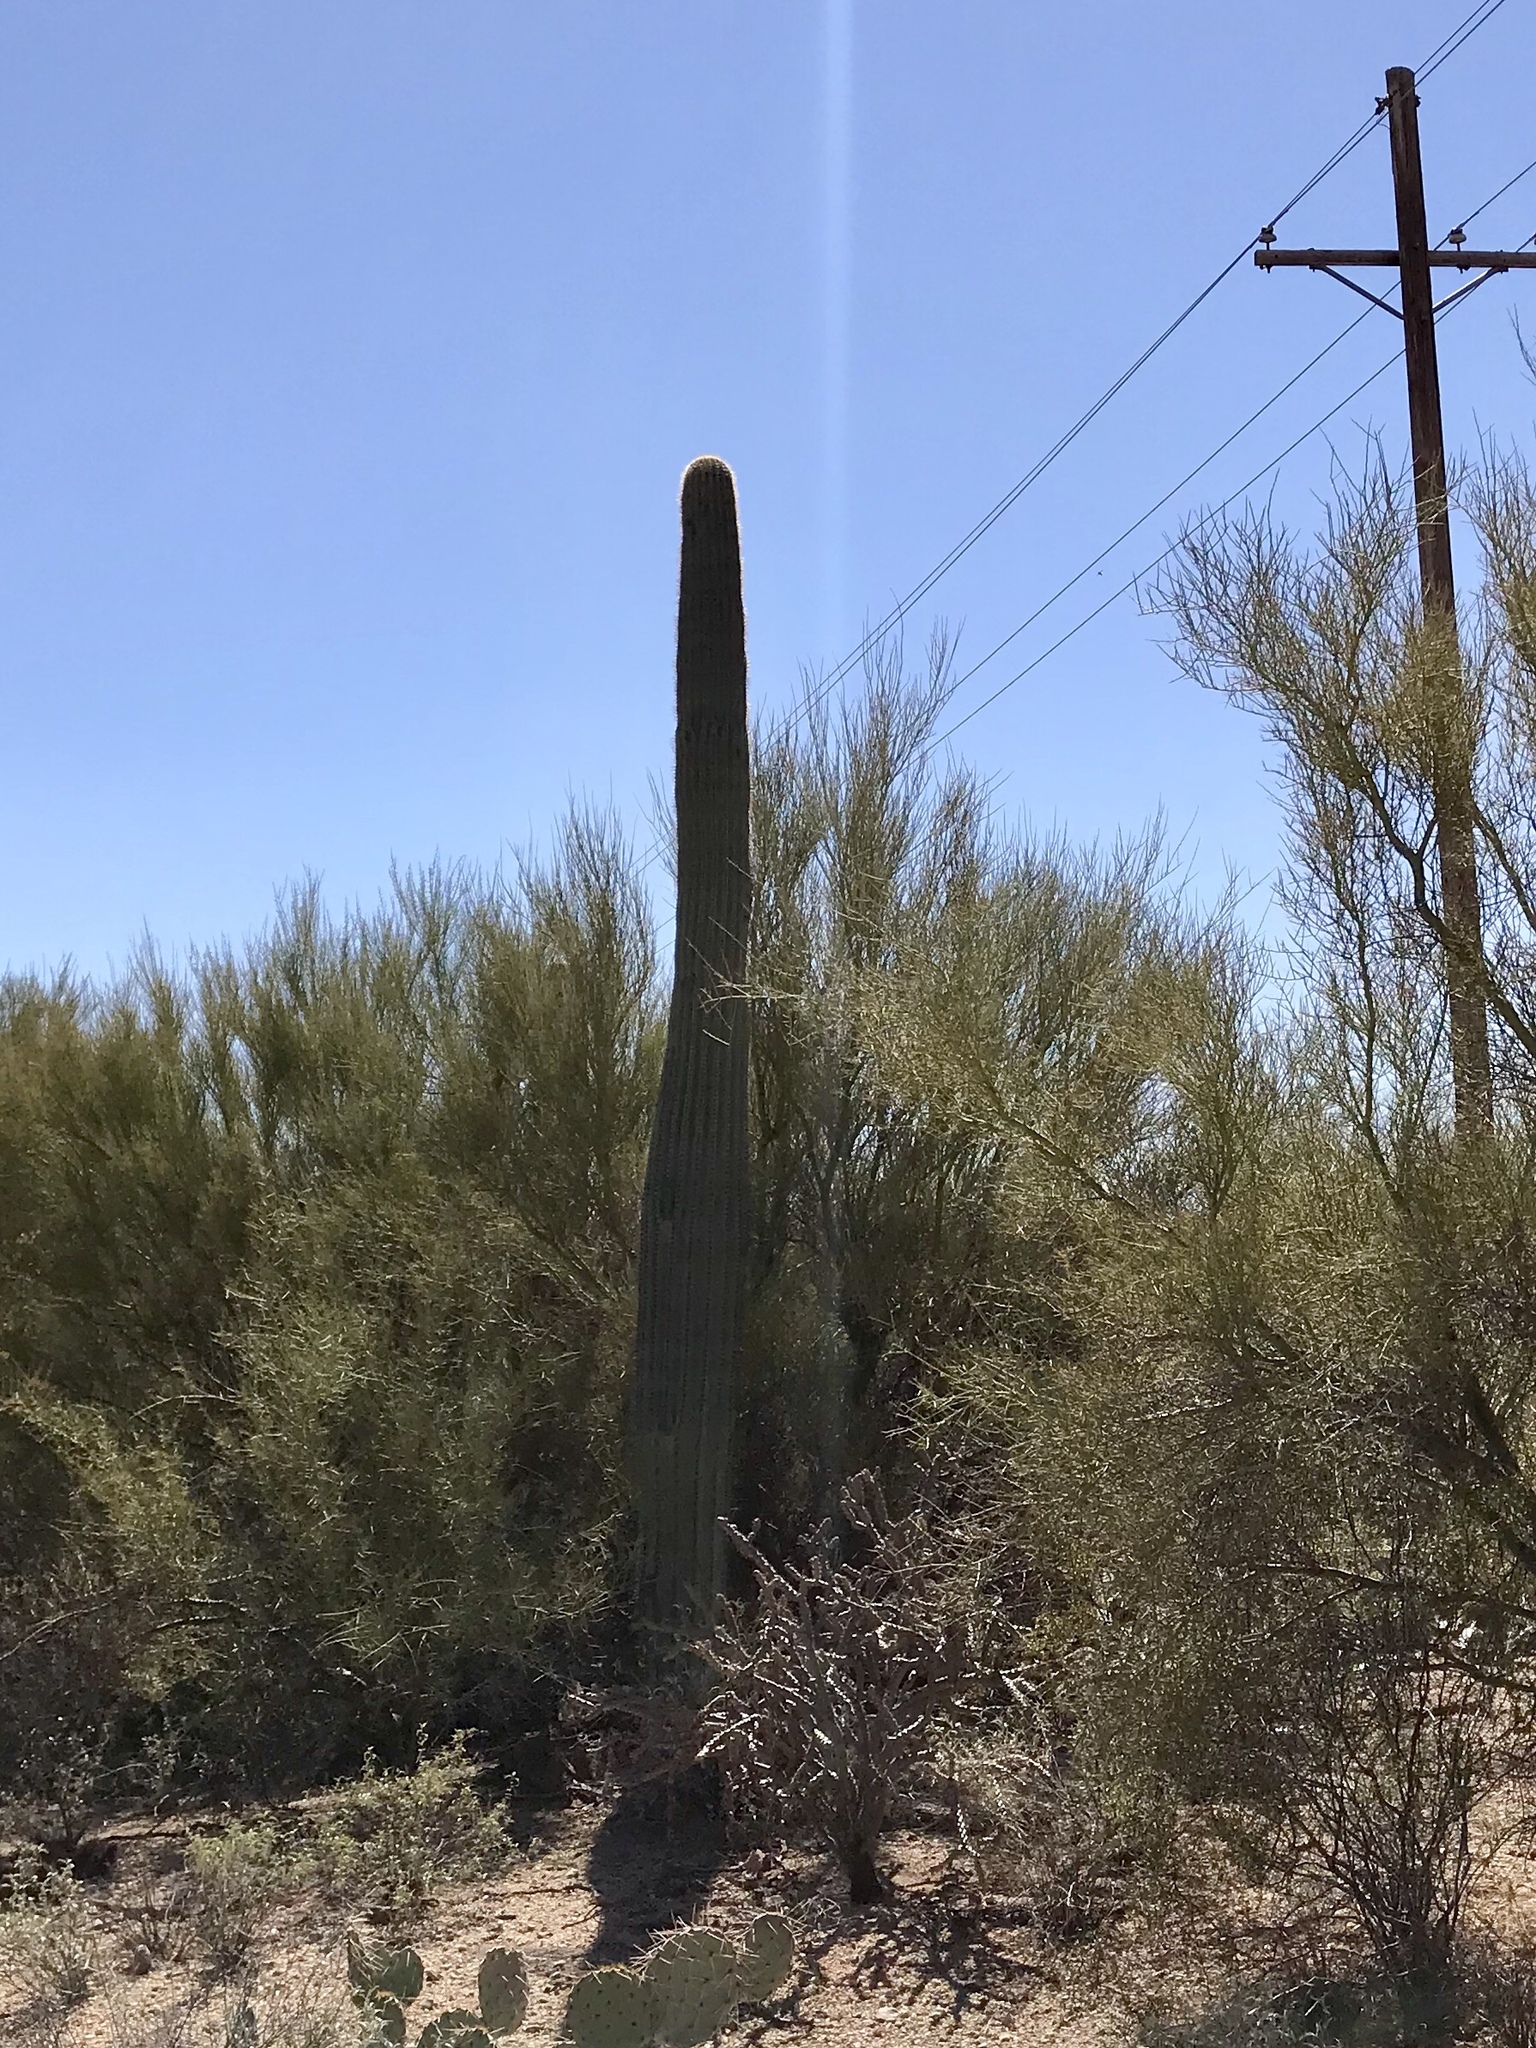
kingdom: Plantae
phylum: Tracheophyta
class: Magnoliopsida
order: Caryophyllales
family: Cactaceae
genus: Carnegiea
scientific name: Carnegiea gigantea
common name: Saguaro
